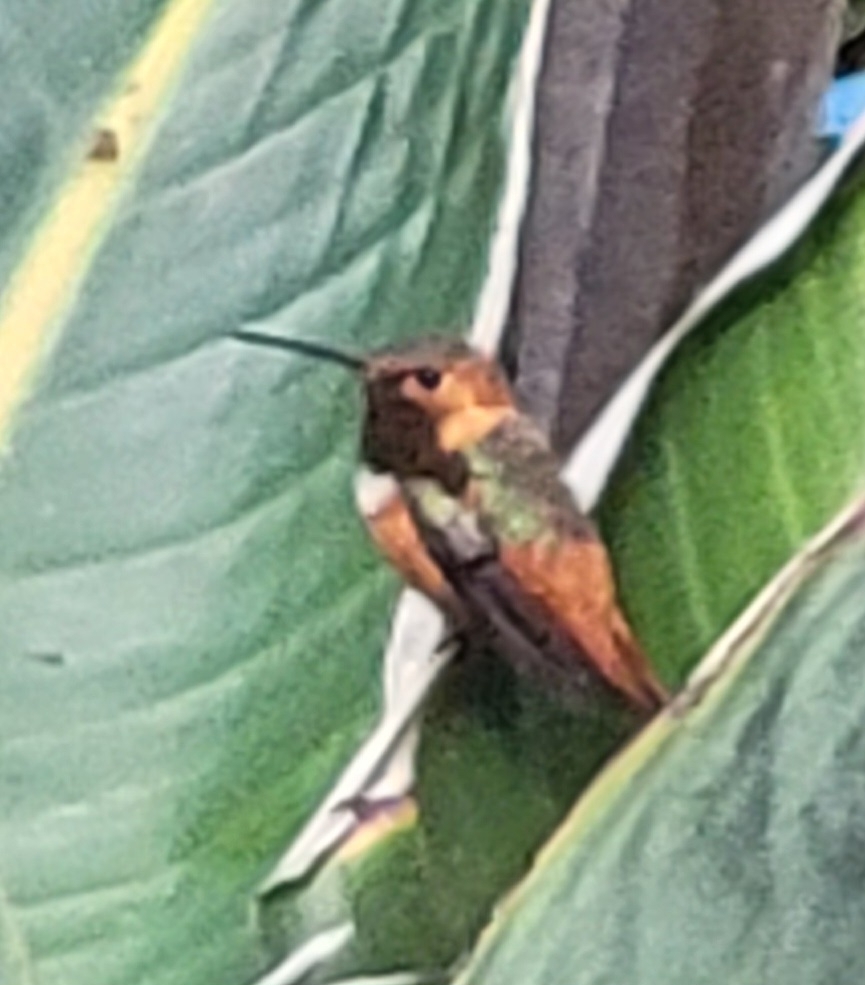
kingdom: Animalia
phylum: Chordata
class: Aves
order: Apodiformes
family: Trochilidae
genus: Selasphorus
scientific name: Selasphorus sasin
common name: Allen's hummingbird
